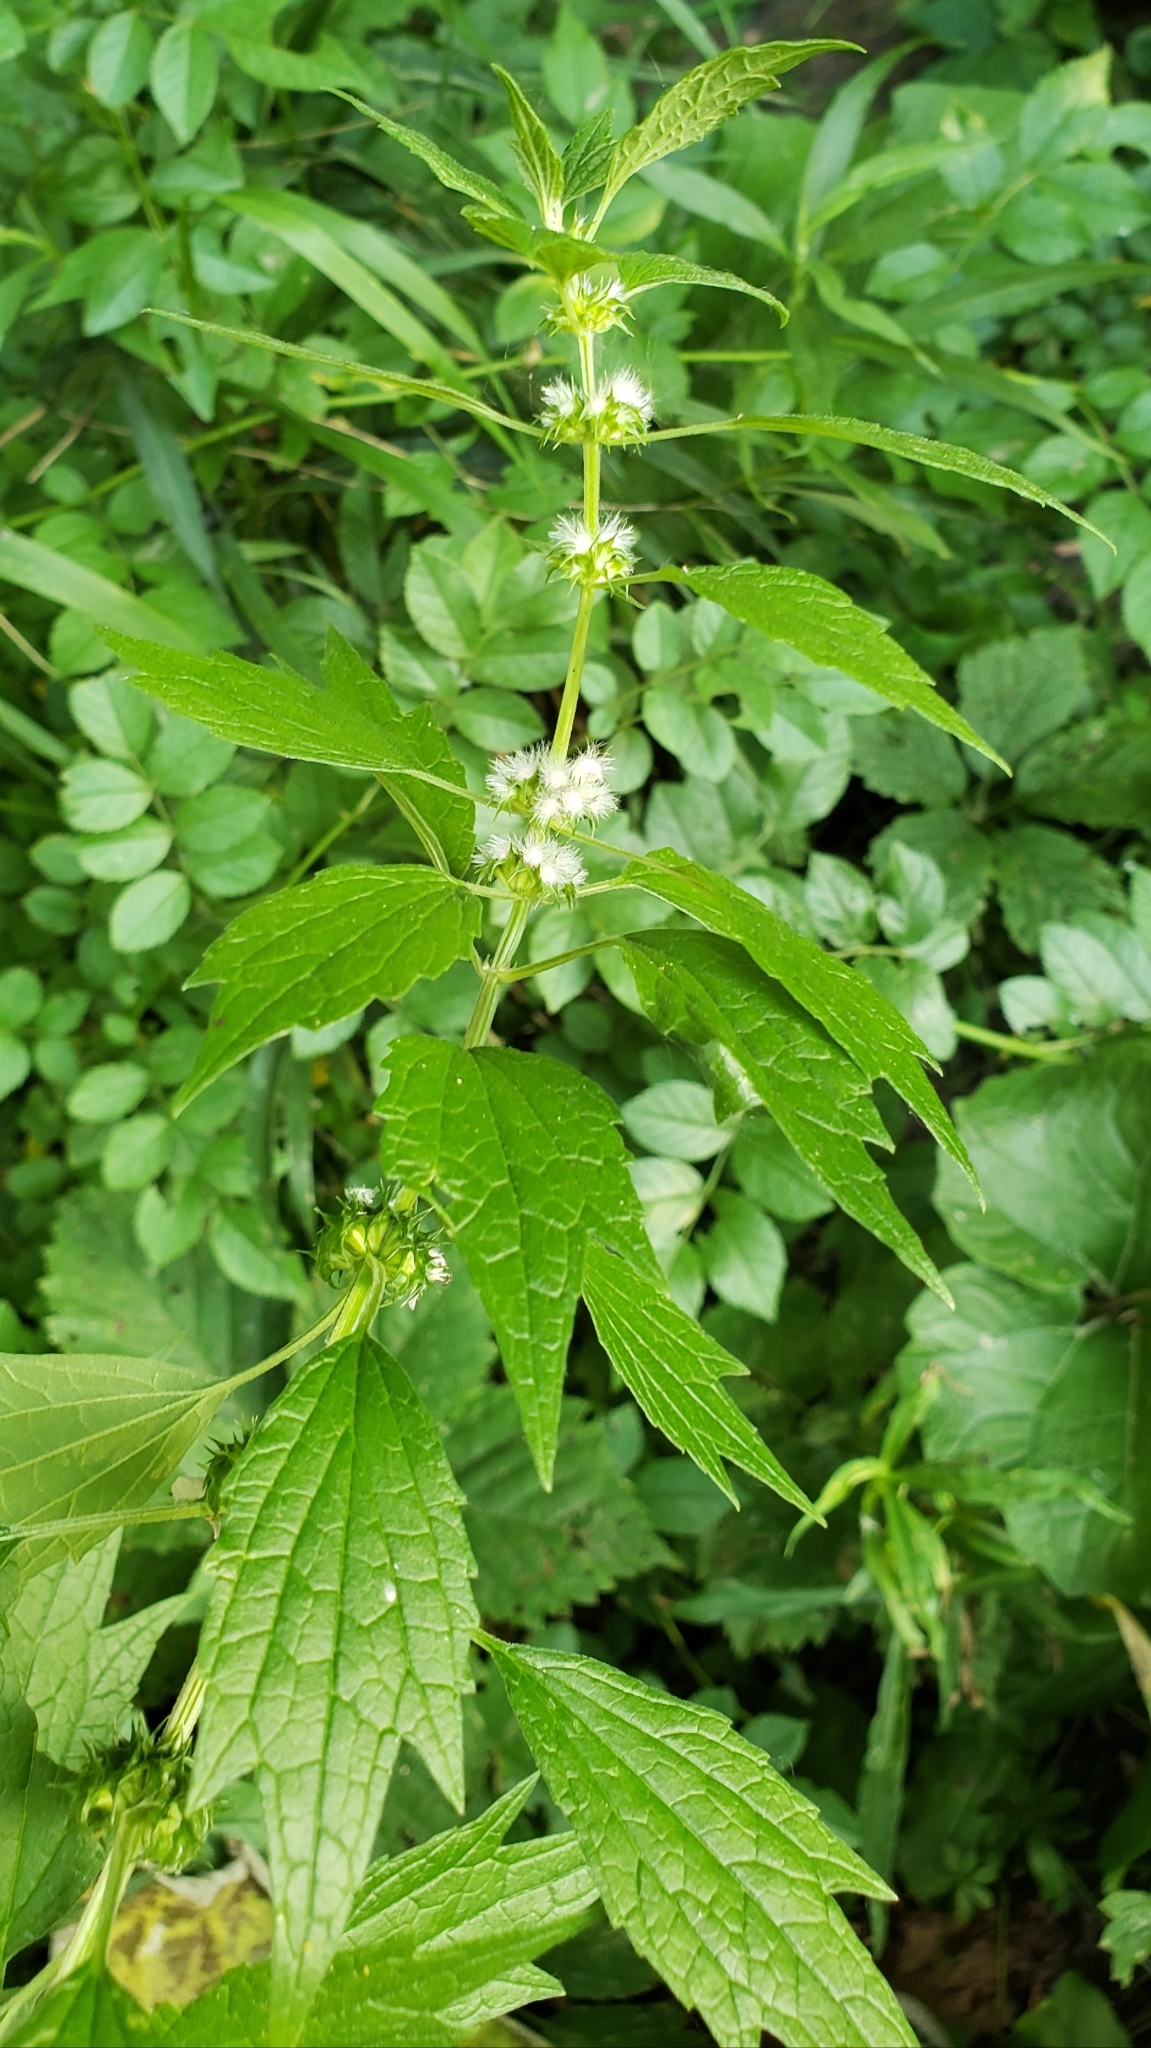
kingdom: Plantae
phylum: Tracheophyta
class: Magnoliopsida
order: Lamiales
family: Lamiaceae
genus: Leonurus
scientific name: Leonurus cardiaca
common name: Motherwort
